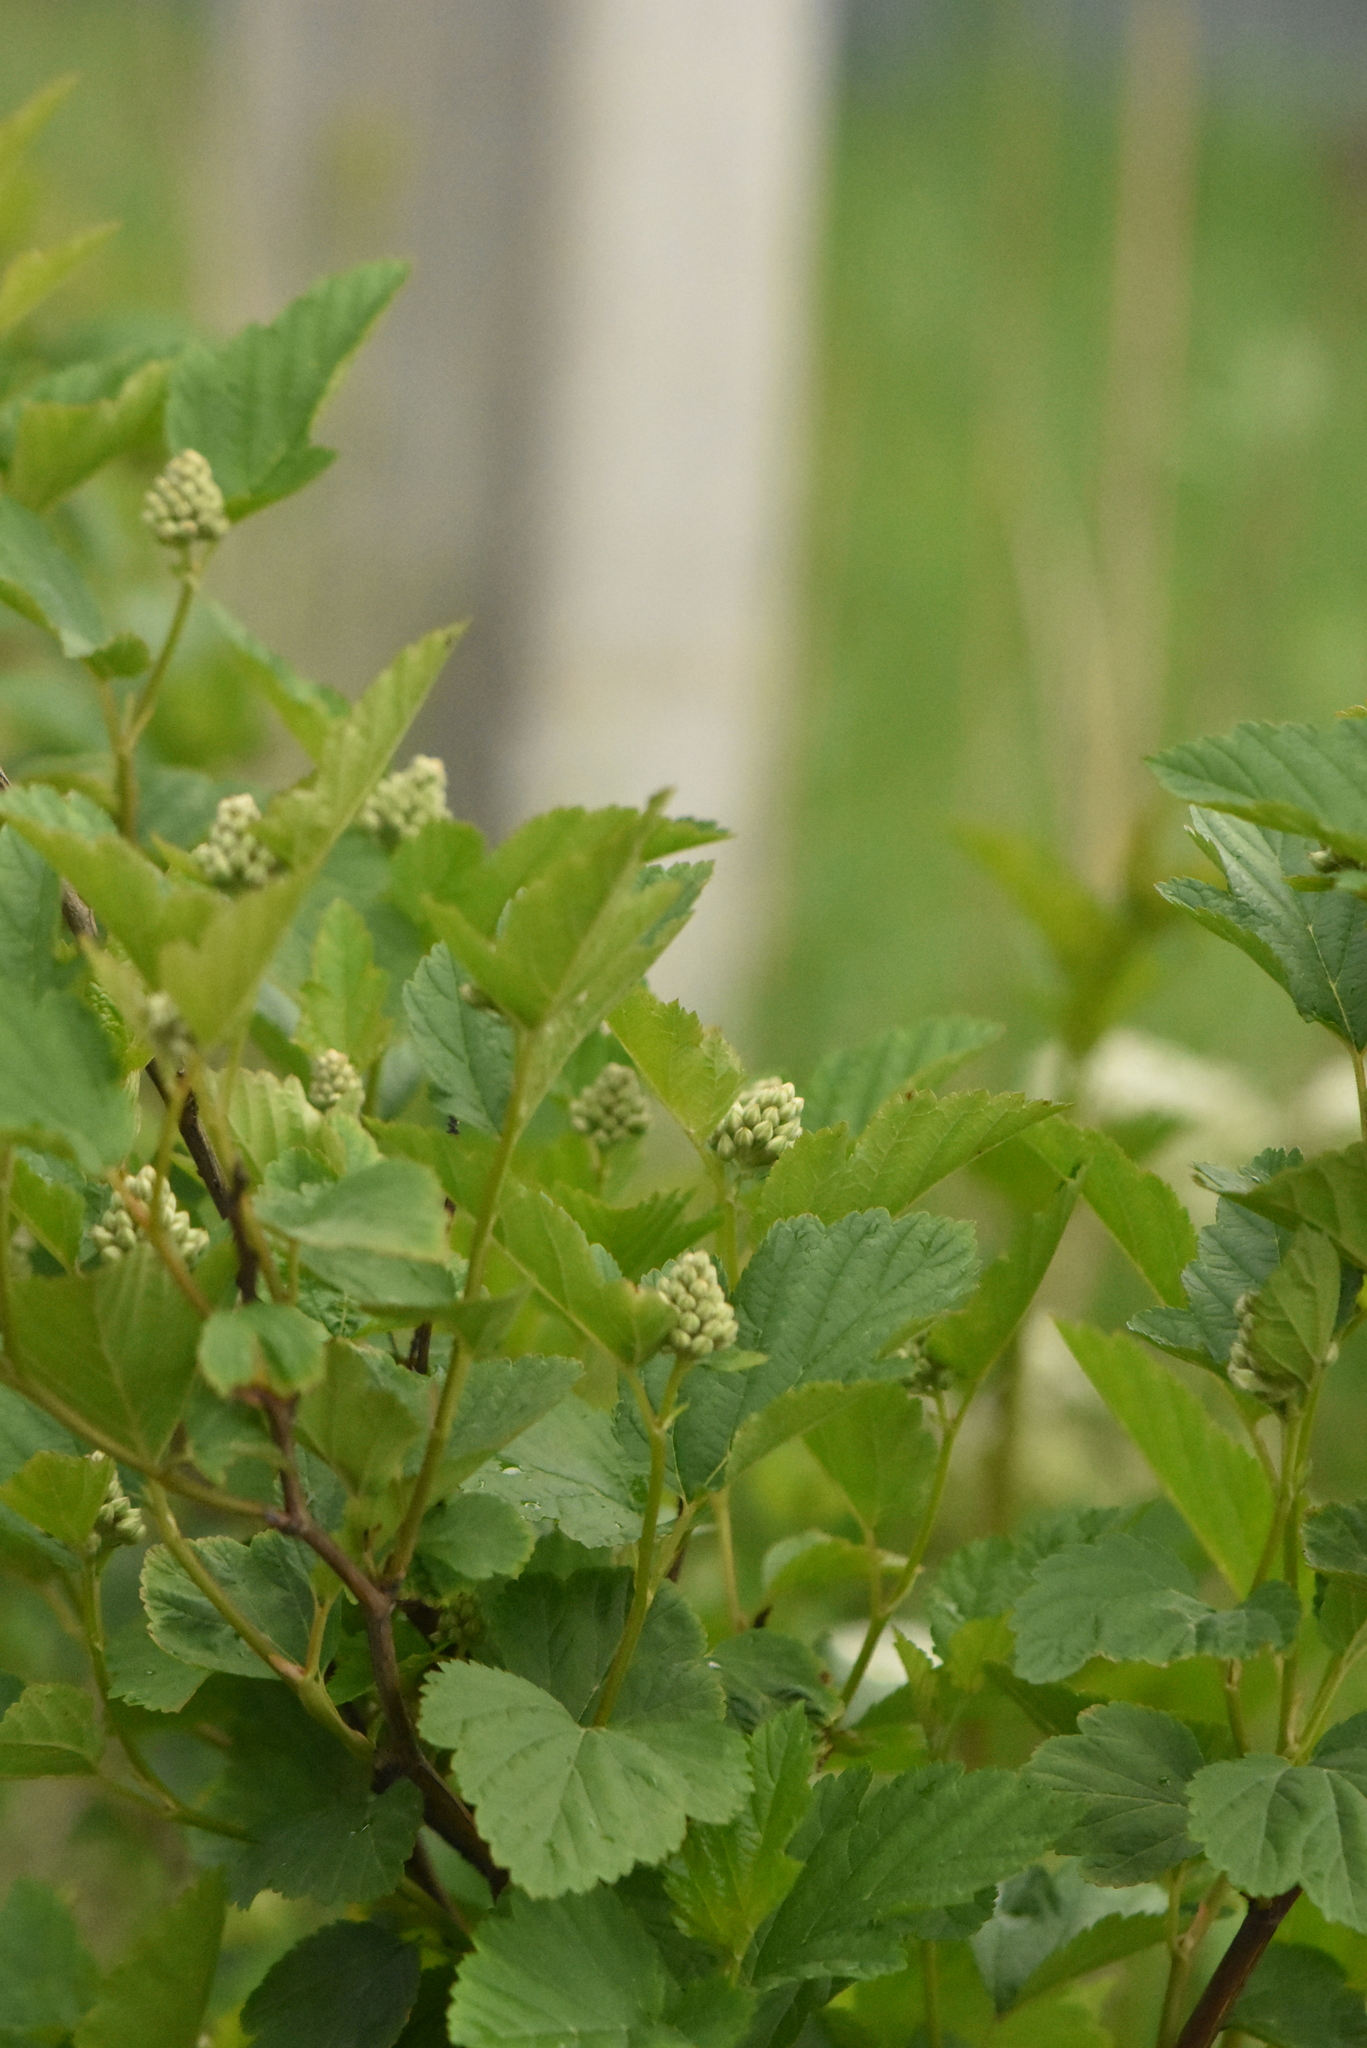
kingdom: Plantae
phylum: Tracheophyta
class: Magnoliopsida
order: Rosales
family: Rosaceae
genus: Physocarpus
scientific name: Physocarpus opulifolius
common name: Ninebark
